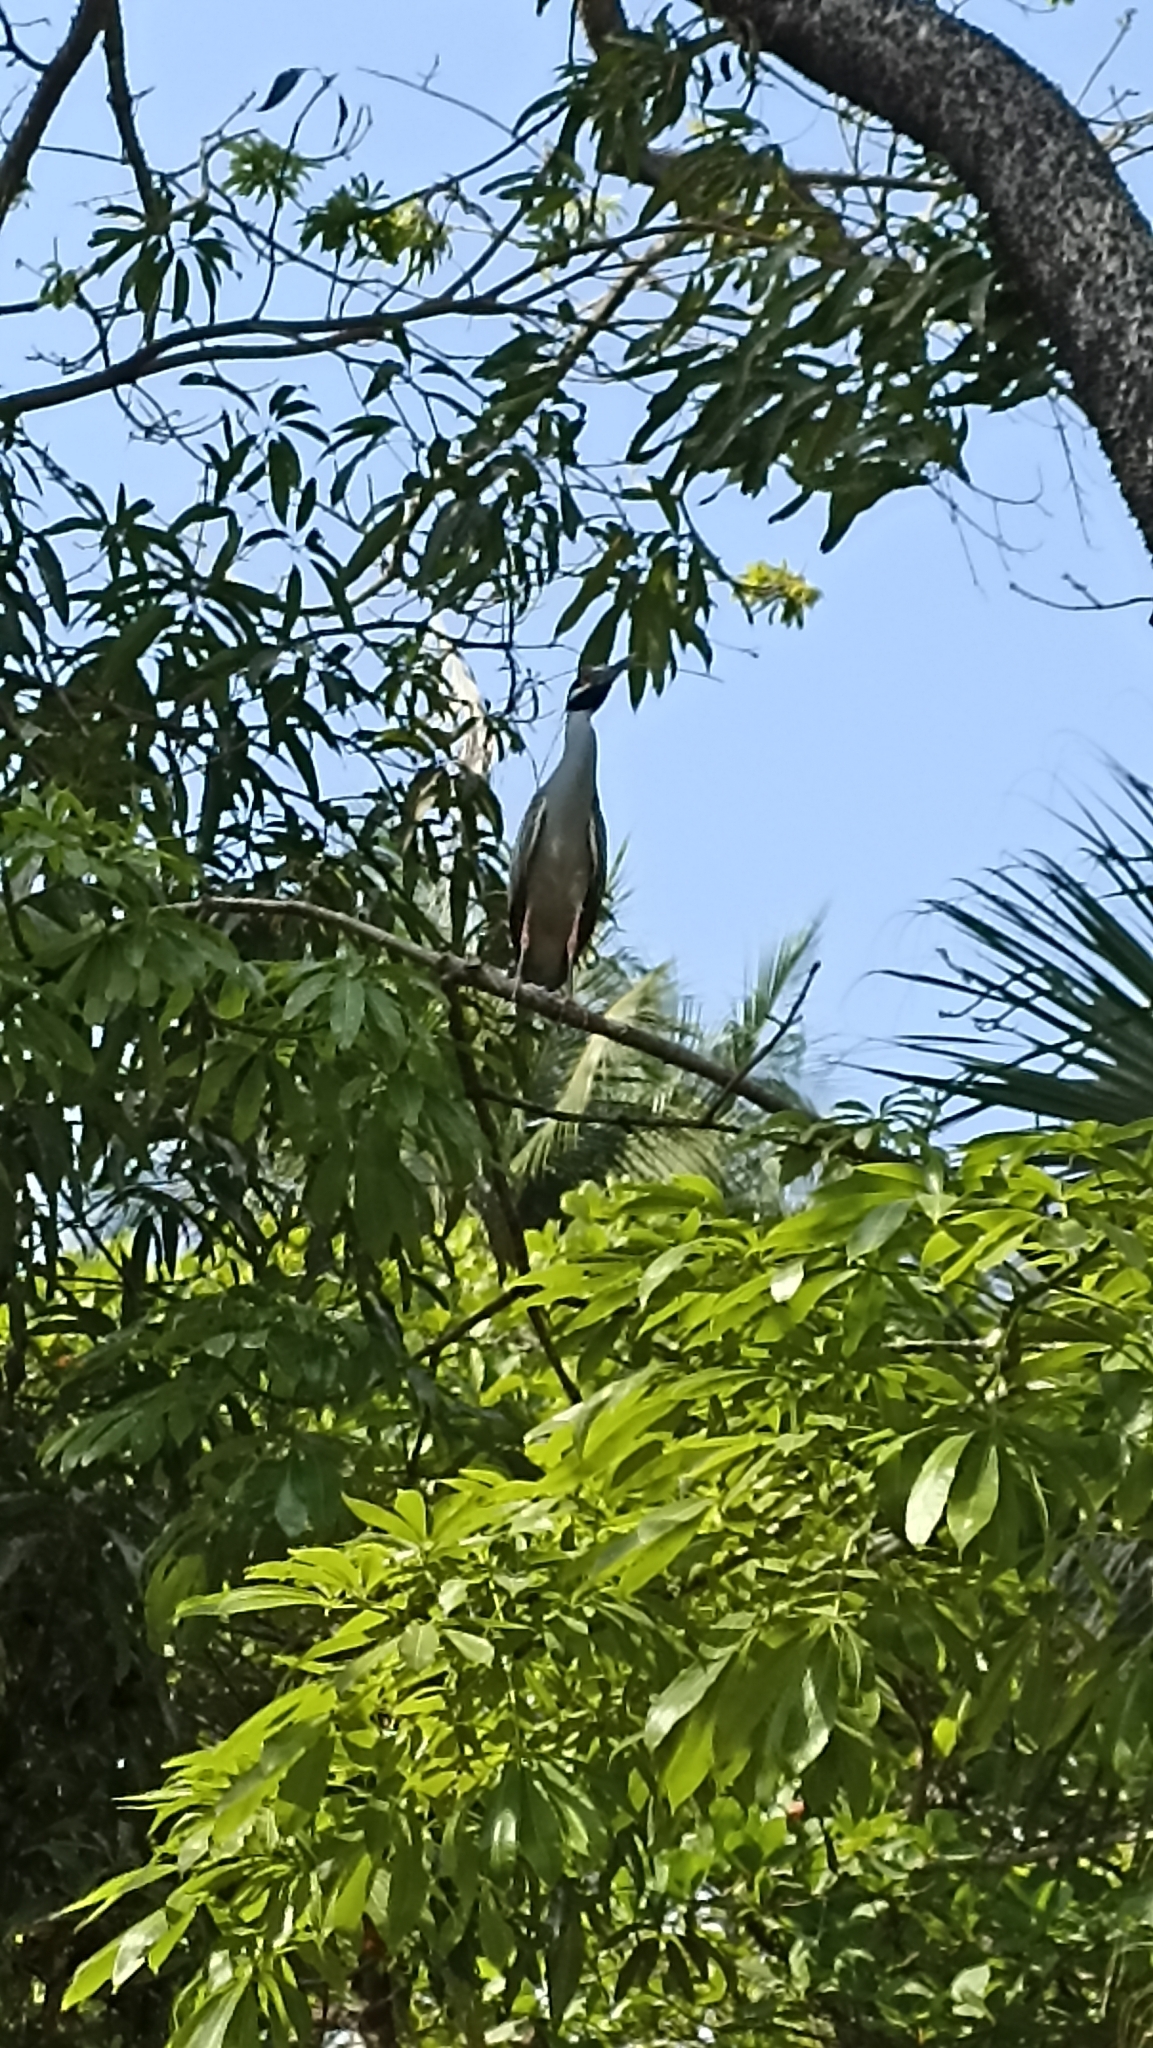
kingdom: Animalia
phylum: Chordata
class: Aves
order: Pelecaniformes
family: Ardeidae
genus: Nyctanassa
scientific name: Nyctanassa violacea
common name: Yellow-crowned night heron
